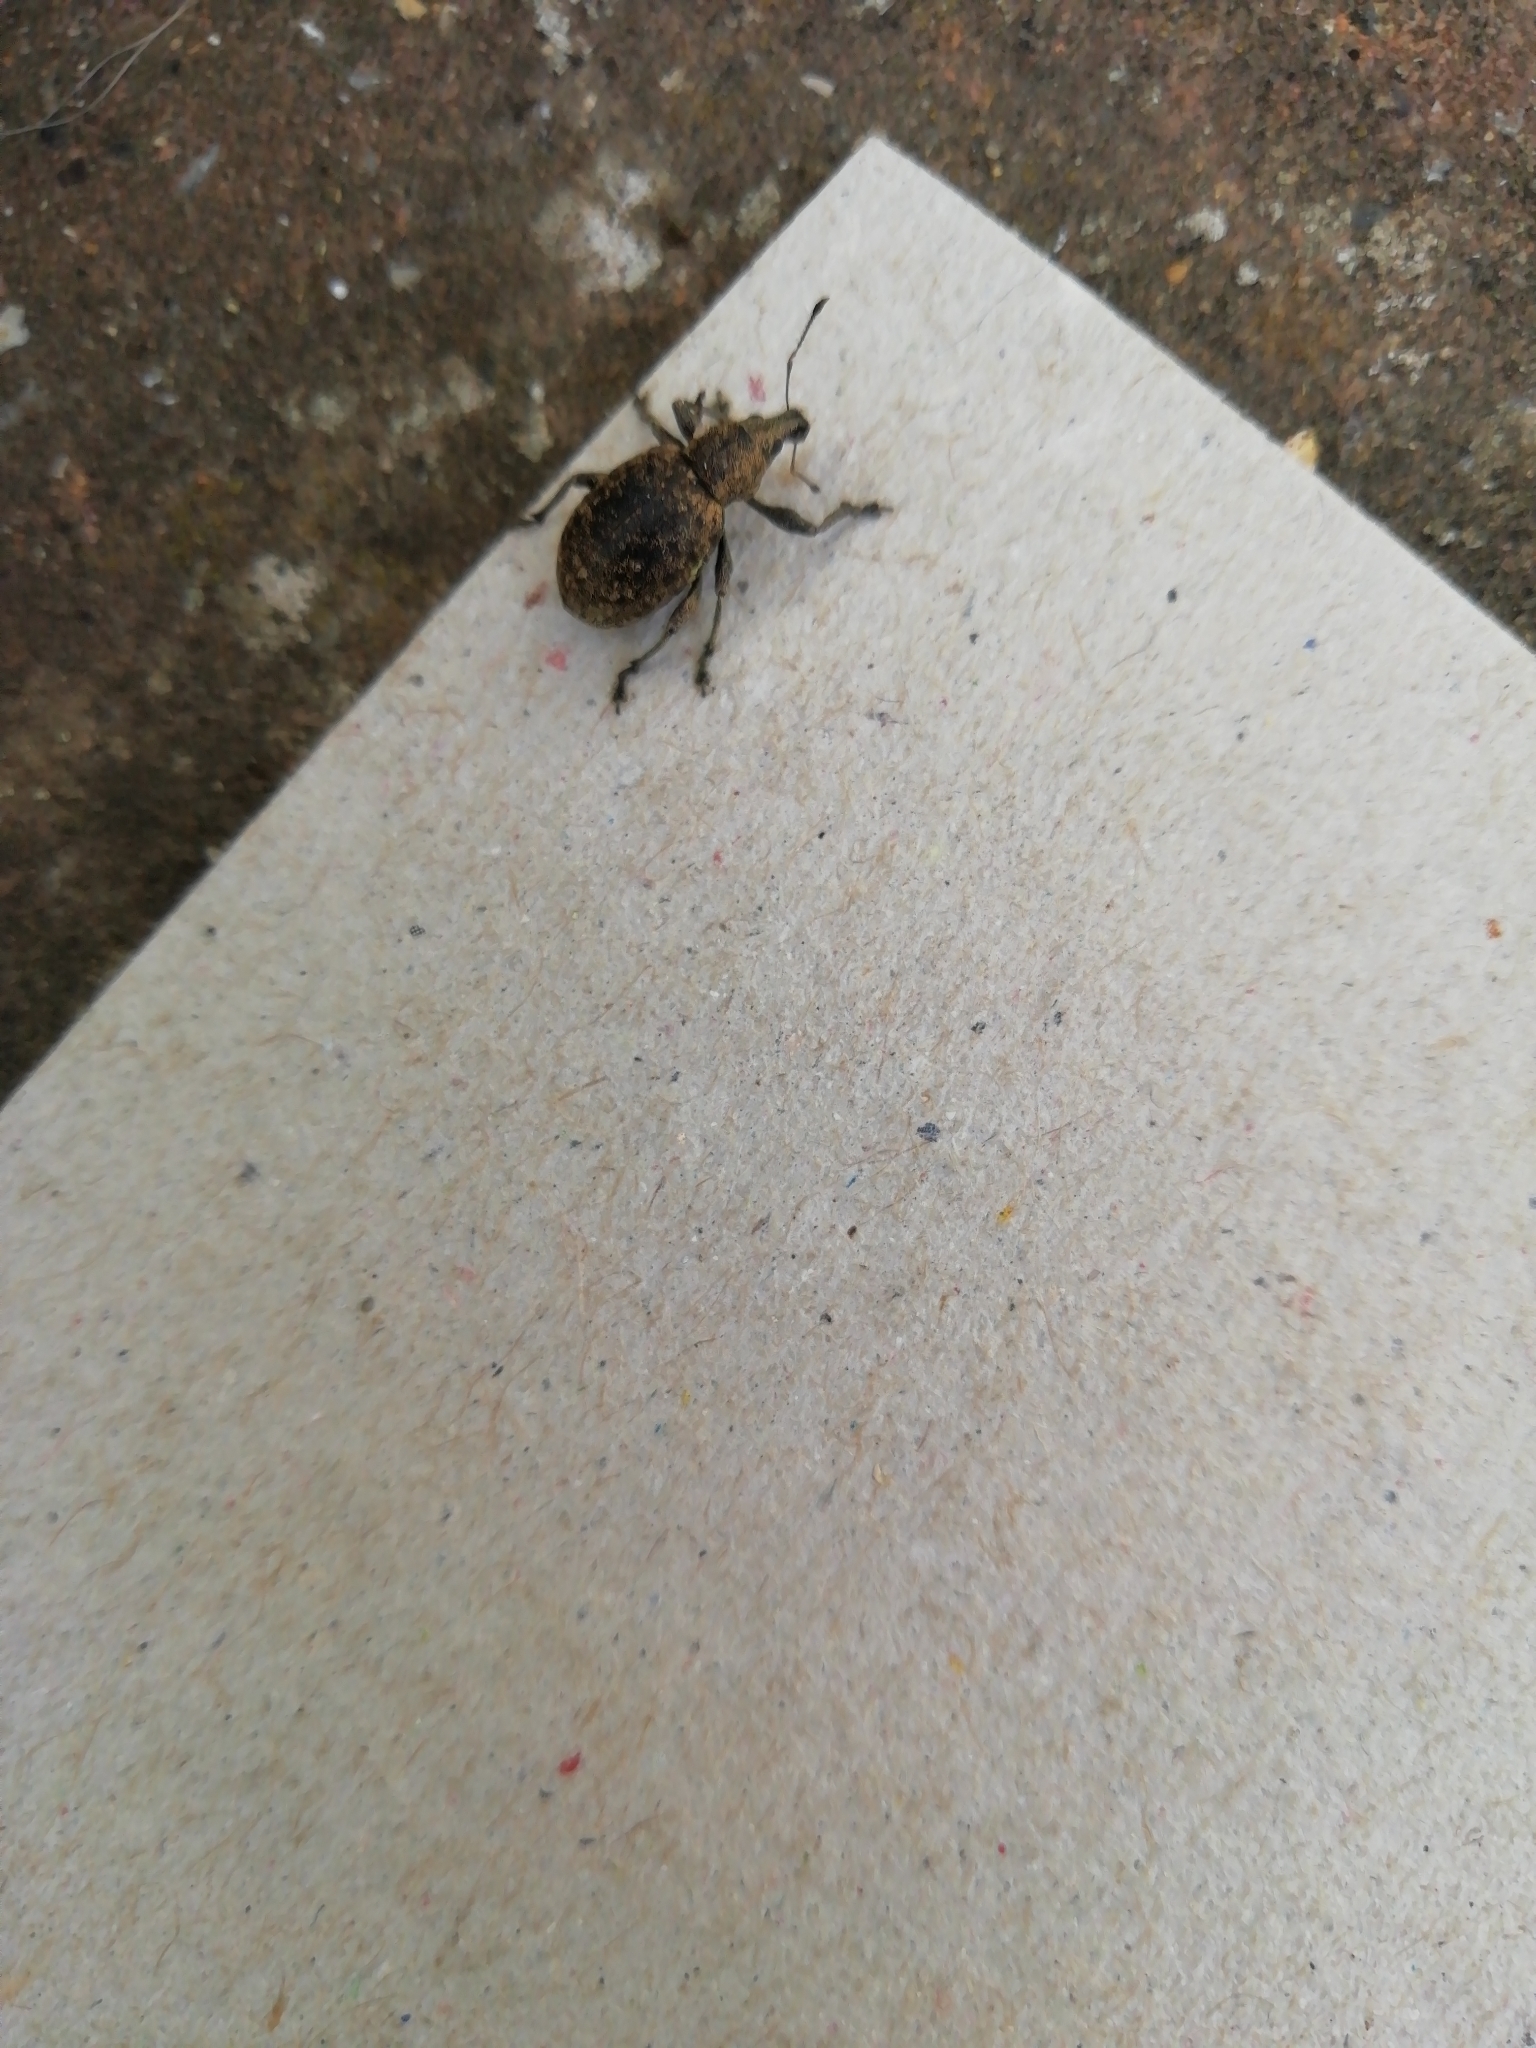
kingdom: Animalia
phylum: Arthropoda
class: Insecta
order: Coleoptera
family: Curculionidae
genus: Liophloeus
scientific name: Liophloeus tessulatus
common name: Weevil
